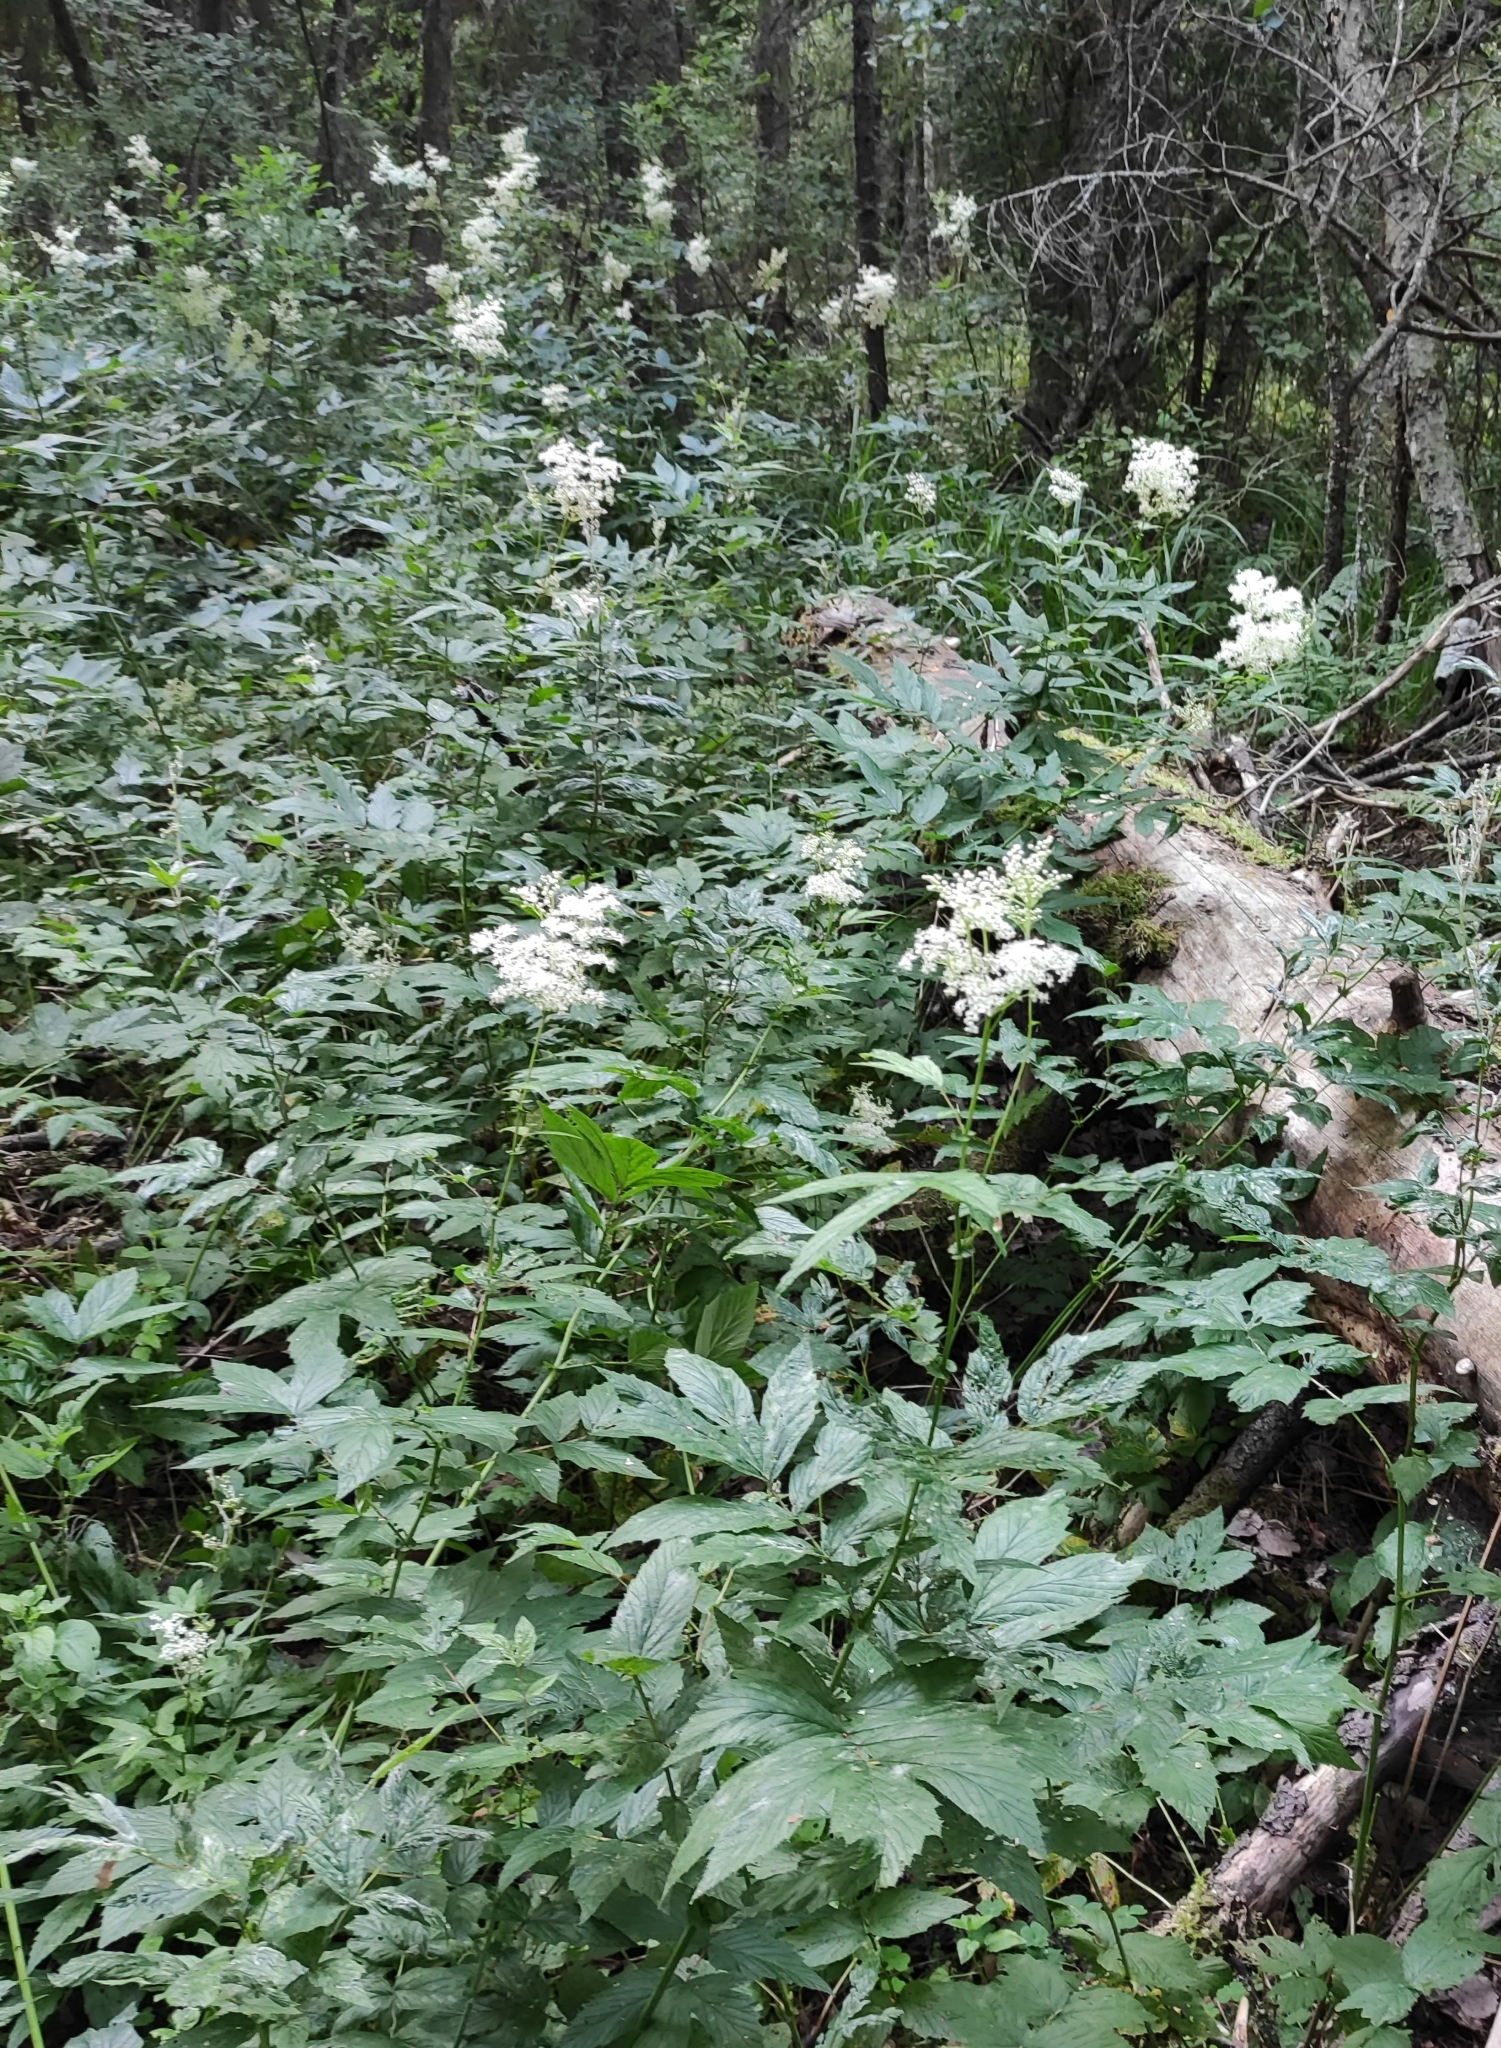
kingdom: Plantae
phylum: Tracheophyta
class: Magnoliopsida
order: Rosales
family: Rosaceae
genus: Filipendula
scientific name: Filipendula ulmaria
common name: Meadowsweet
